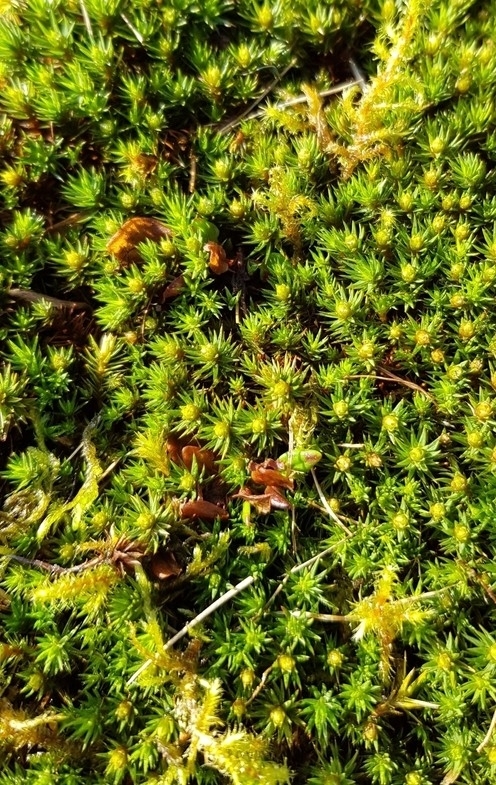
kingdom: Plantae
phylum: Bryophyta
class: Polytrichopsida
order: Polytrichales
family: Polytrichaceae
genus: Polytrichum
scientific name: Polytrichum juniperinum
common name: Juniper haircap moss
